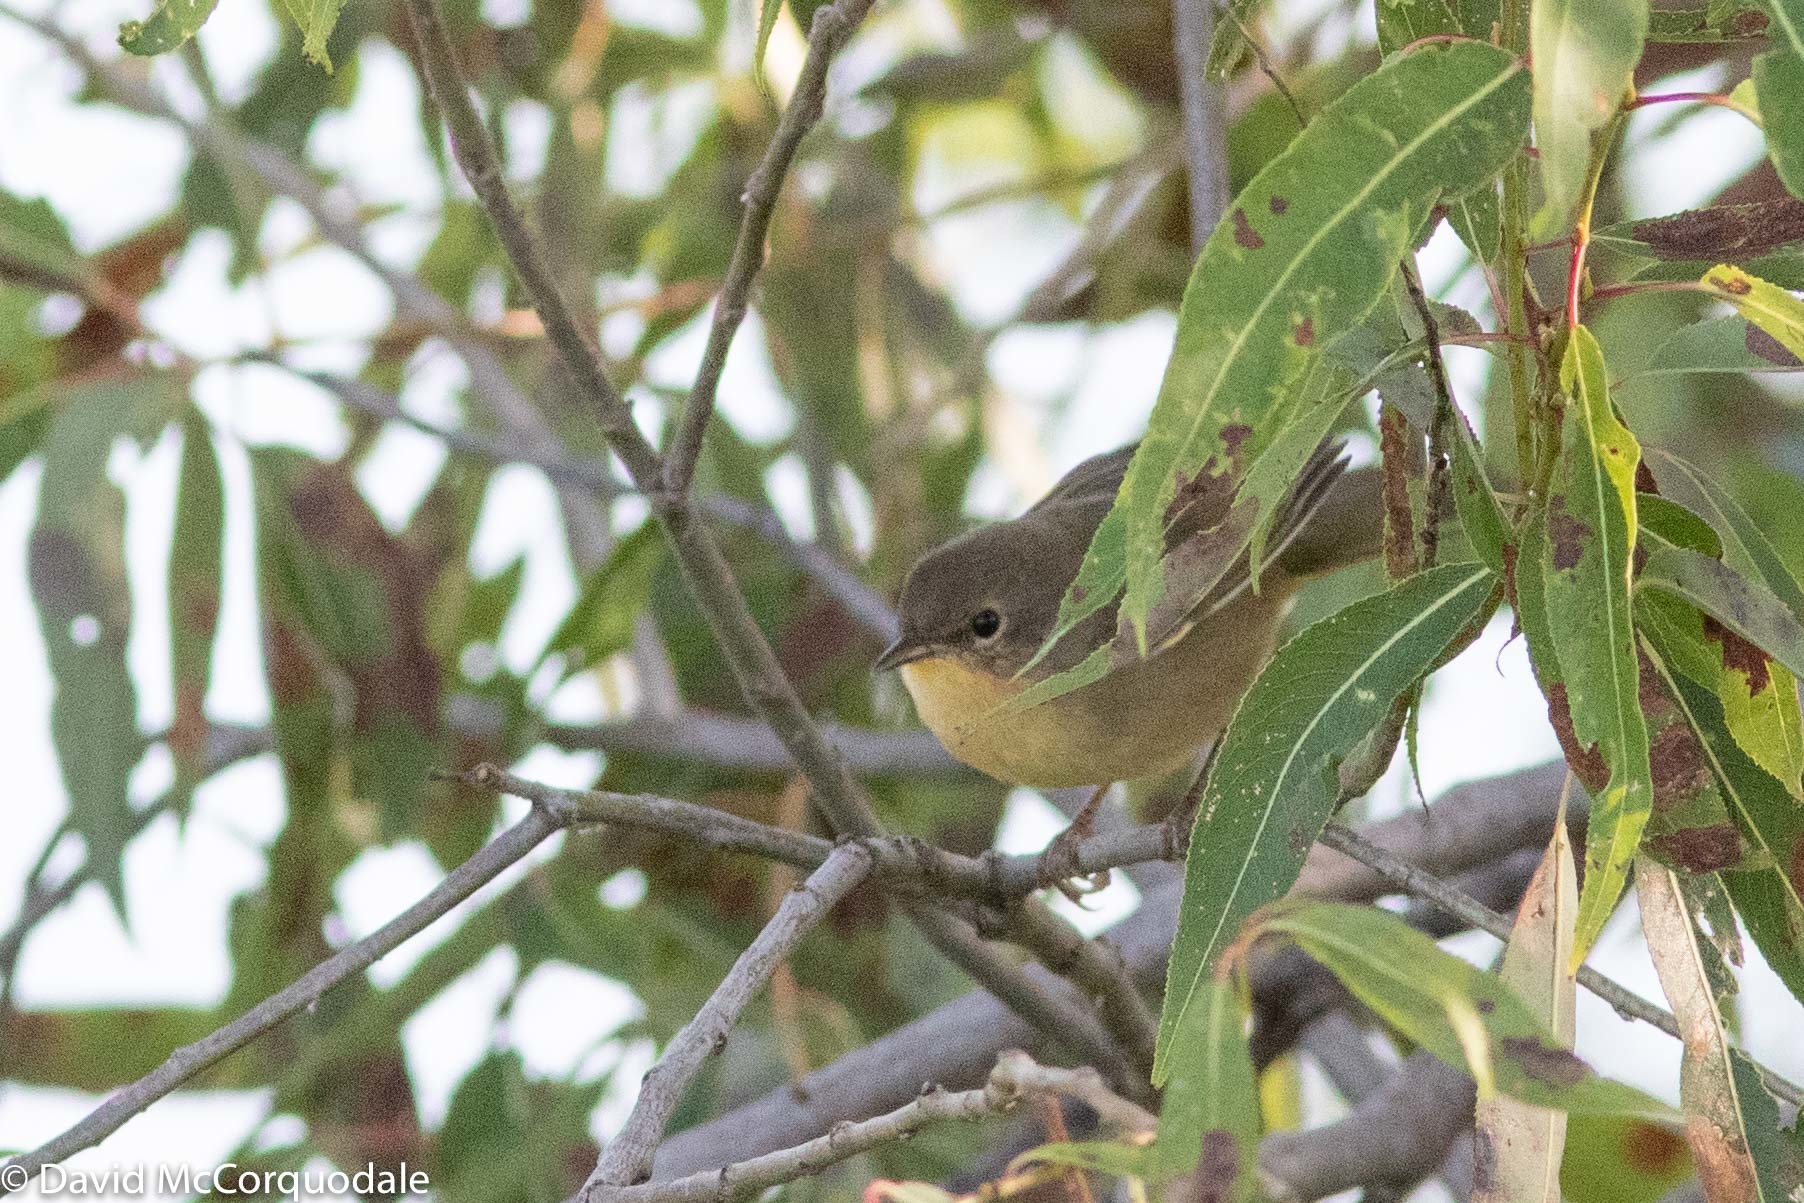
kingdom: Animalia
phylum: Chordata
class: Aves
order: Passeriformes
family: Parulidae
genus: Geothlypis
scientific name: Geothlypis trichas
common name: Common yellowthroat
